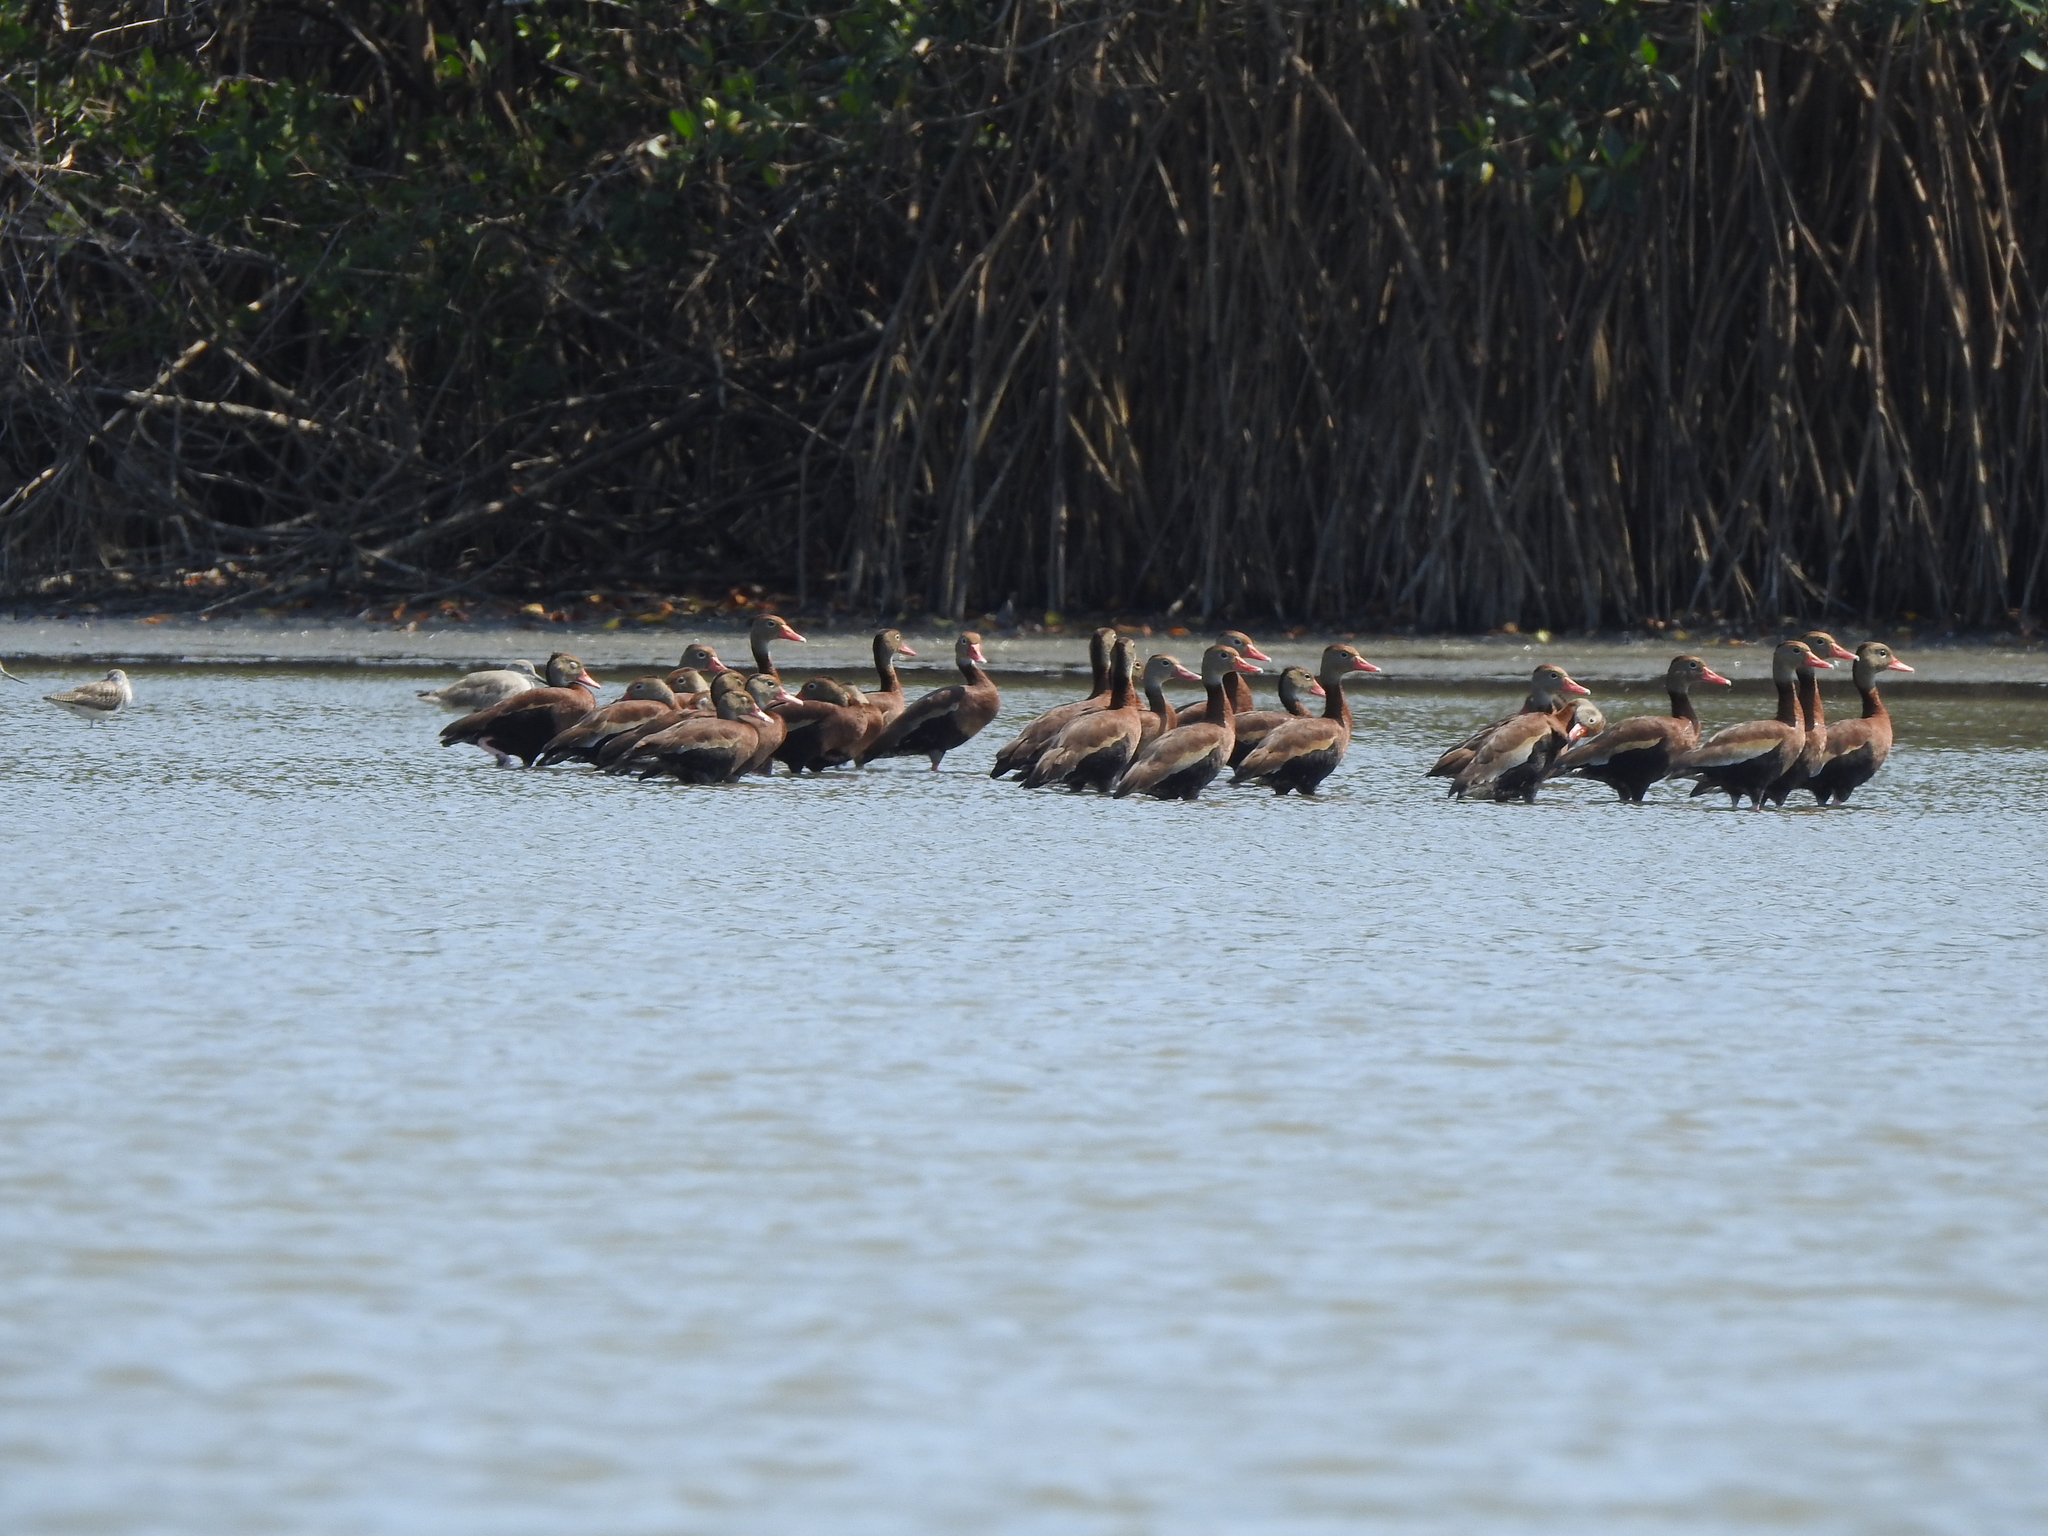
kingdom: Animalia
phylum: Chordata
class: Aves
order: Anseriformes
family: Anatidae
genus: Dendrocygna
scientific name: Dendrocygna autumnalis
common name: Black-bellied whistling duck
